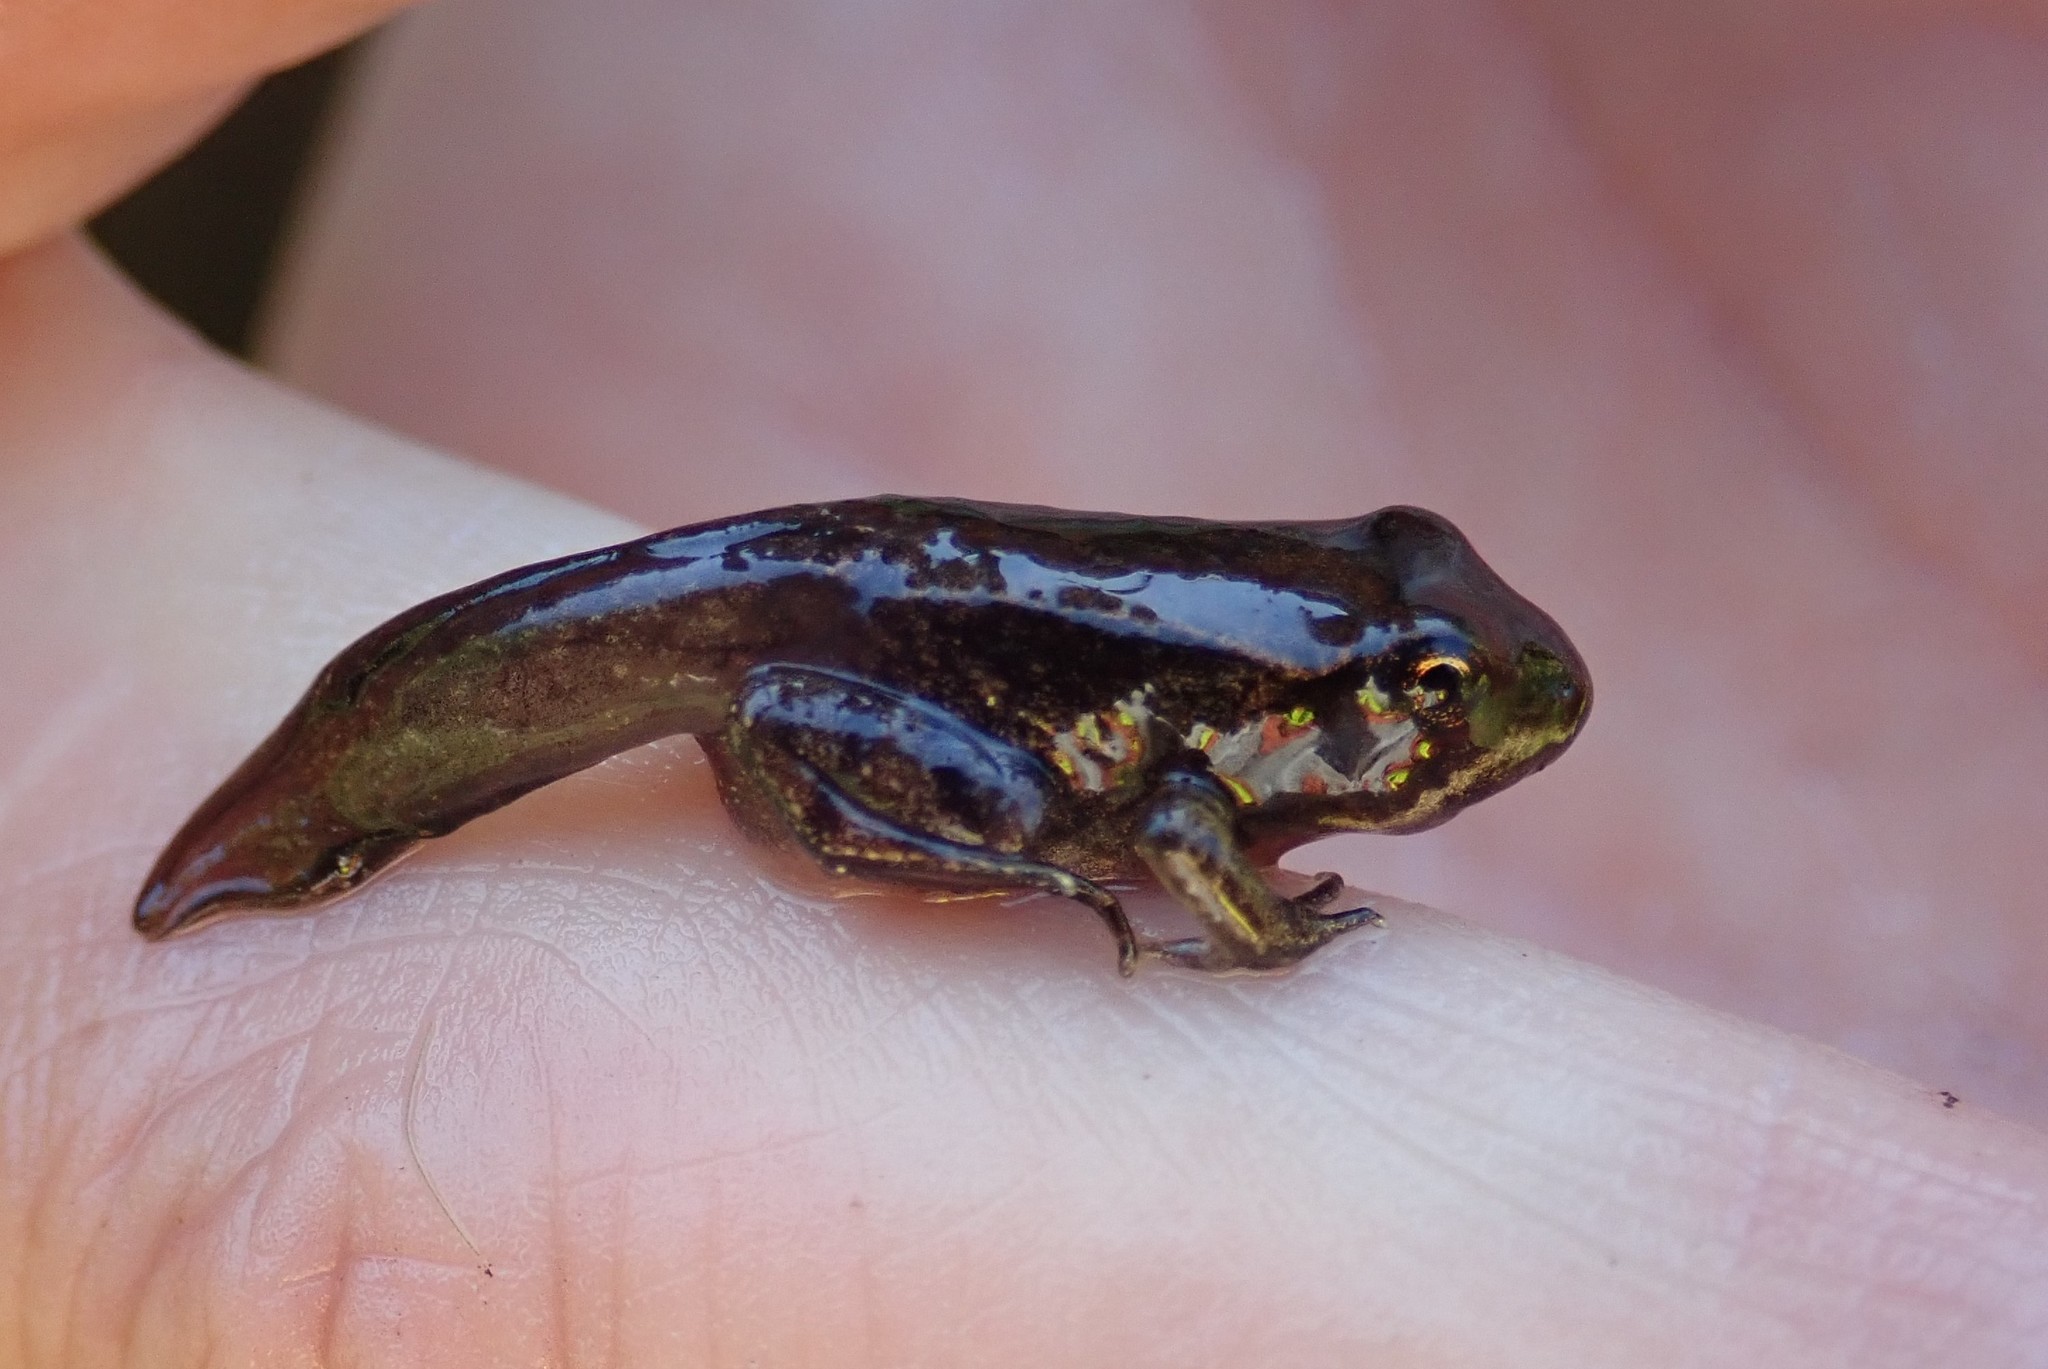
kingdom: Animalia
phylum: Chordata
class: Amphibia
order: Anura
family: Ranidae
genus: Lithobates
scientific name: Lithobates sylvaticus
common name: Wood frog
